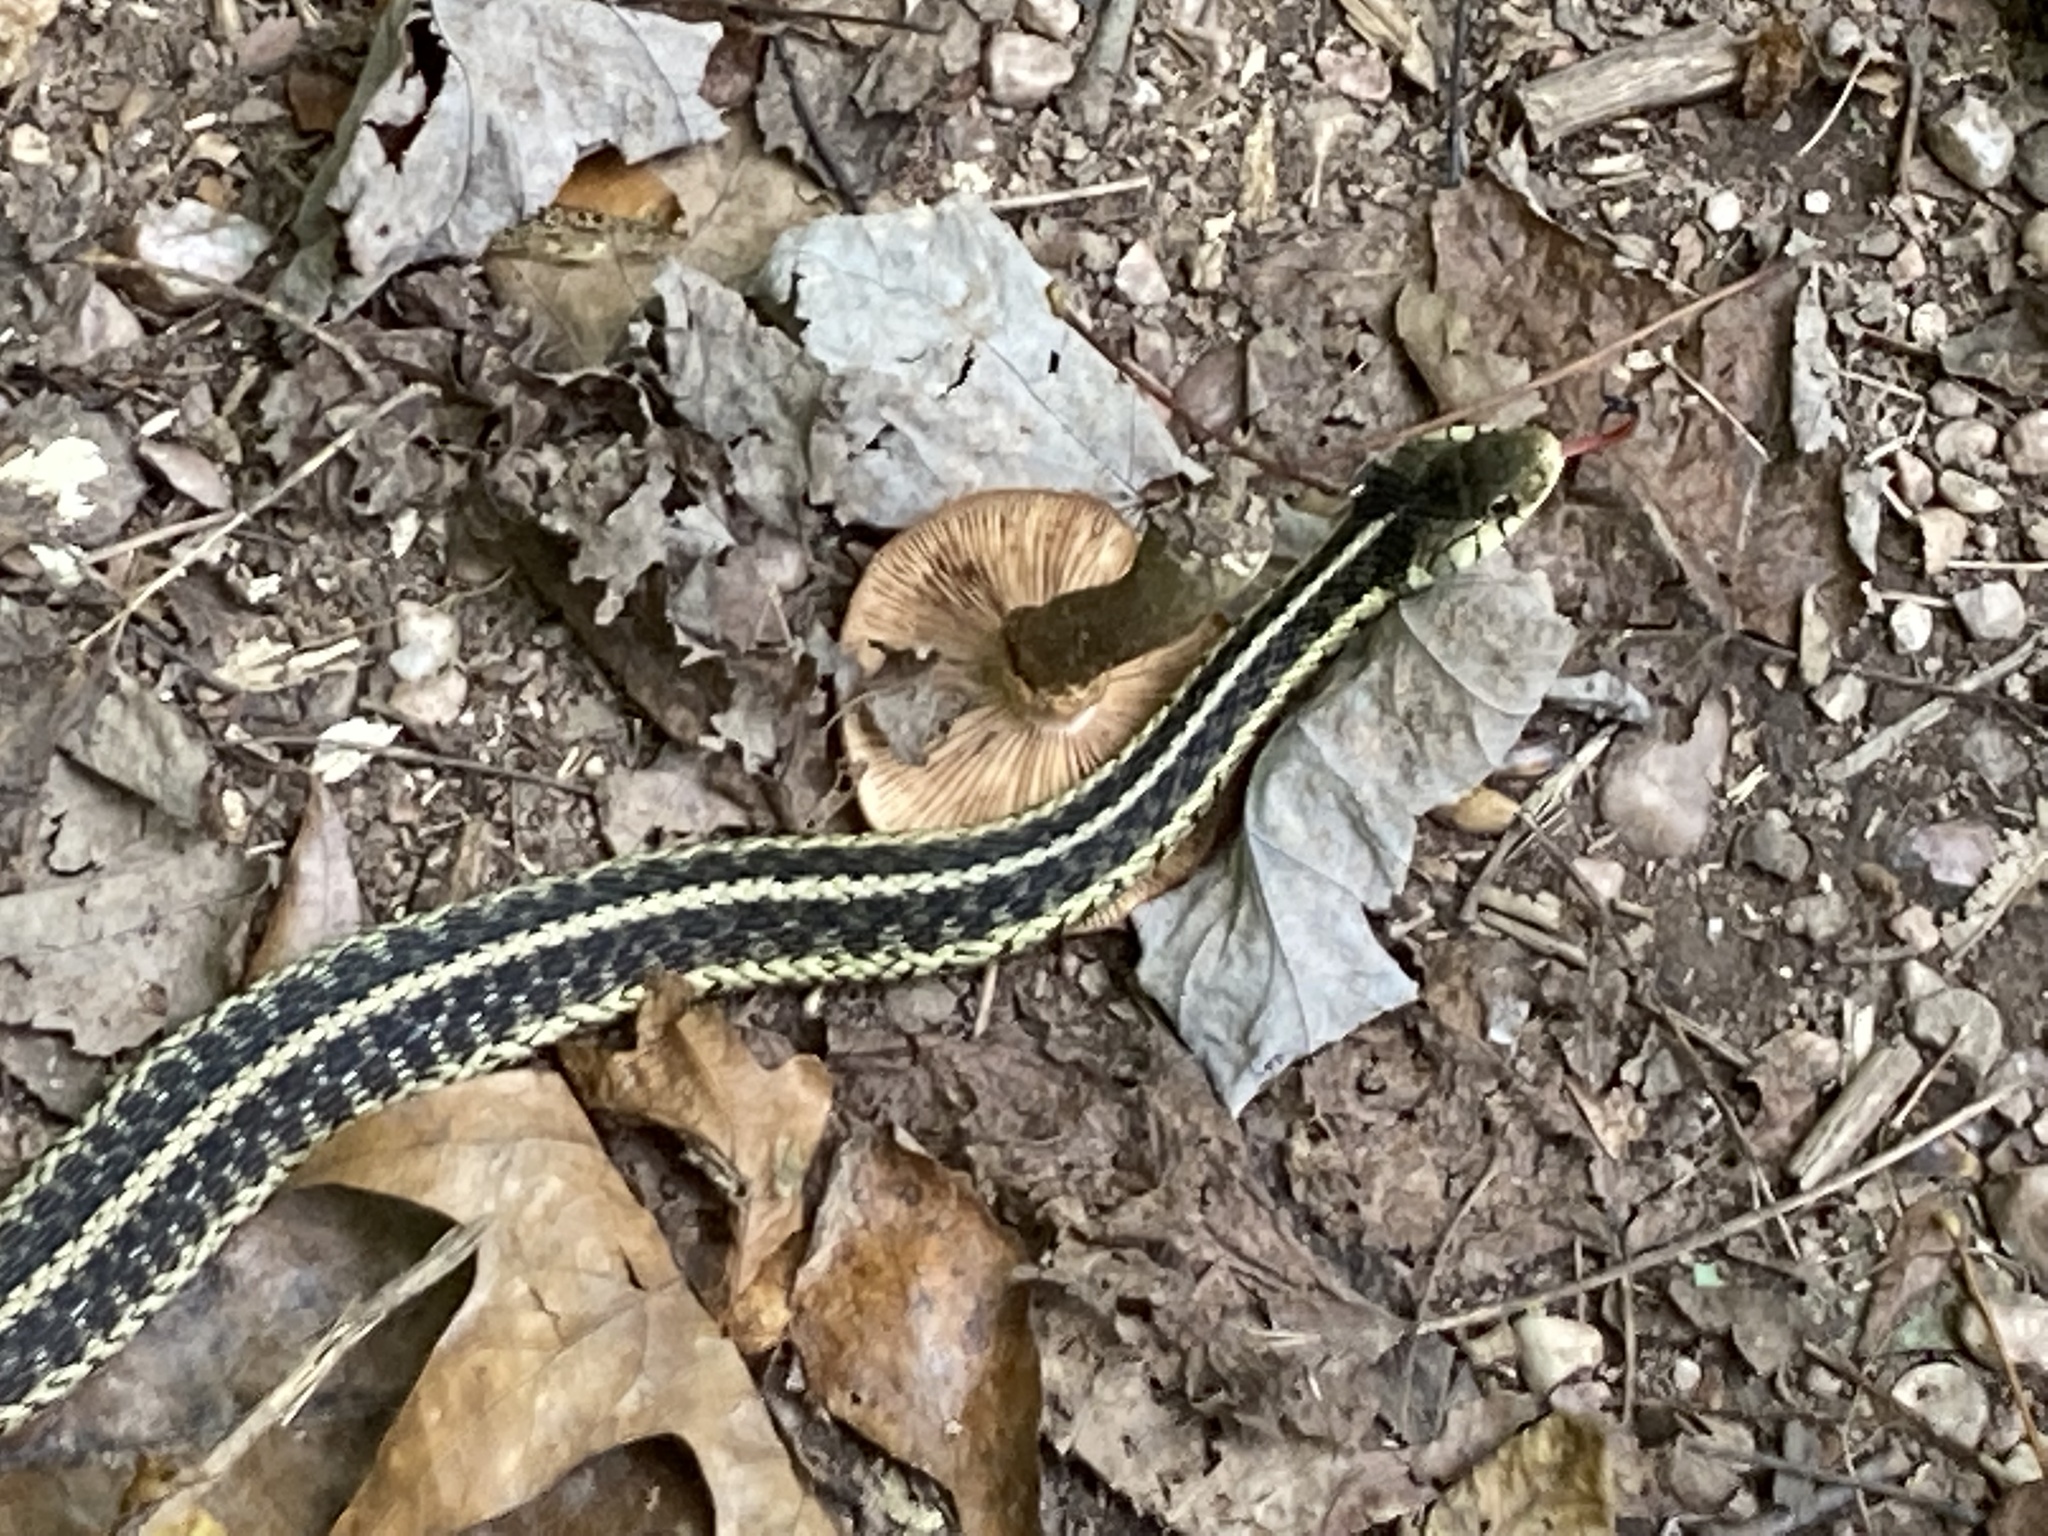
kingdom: Animalia
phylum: Chordata
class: Squamata
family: Colubridae
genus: Thamnophis
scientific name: Thamnophis sirtalis
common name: Common garter snake
